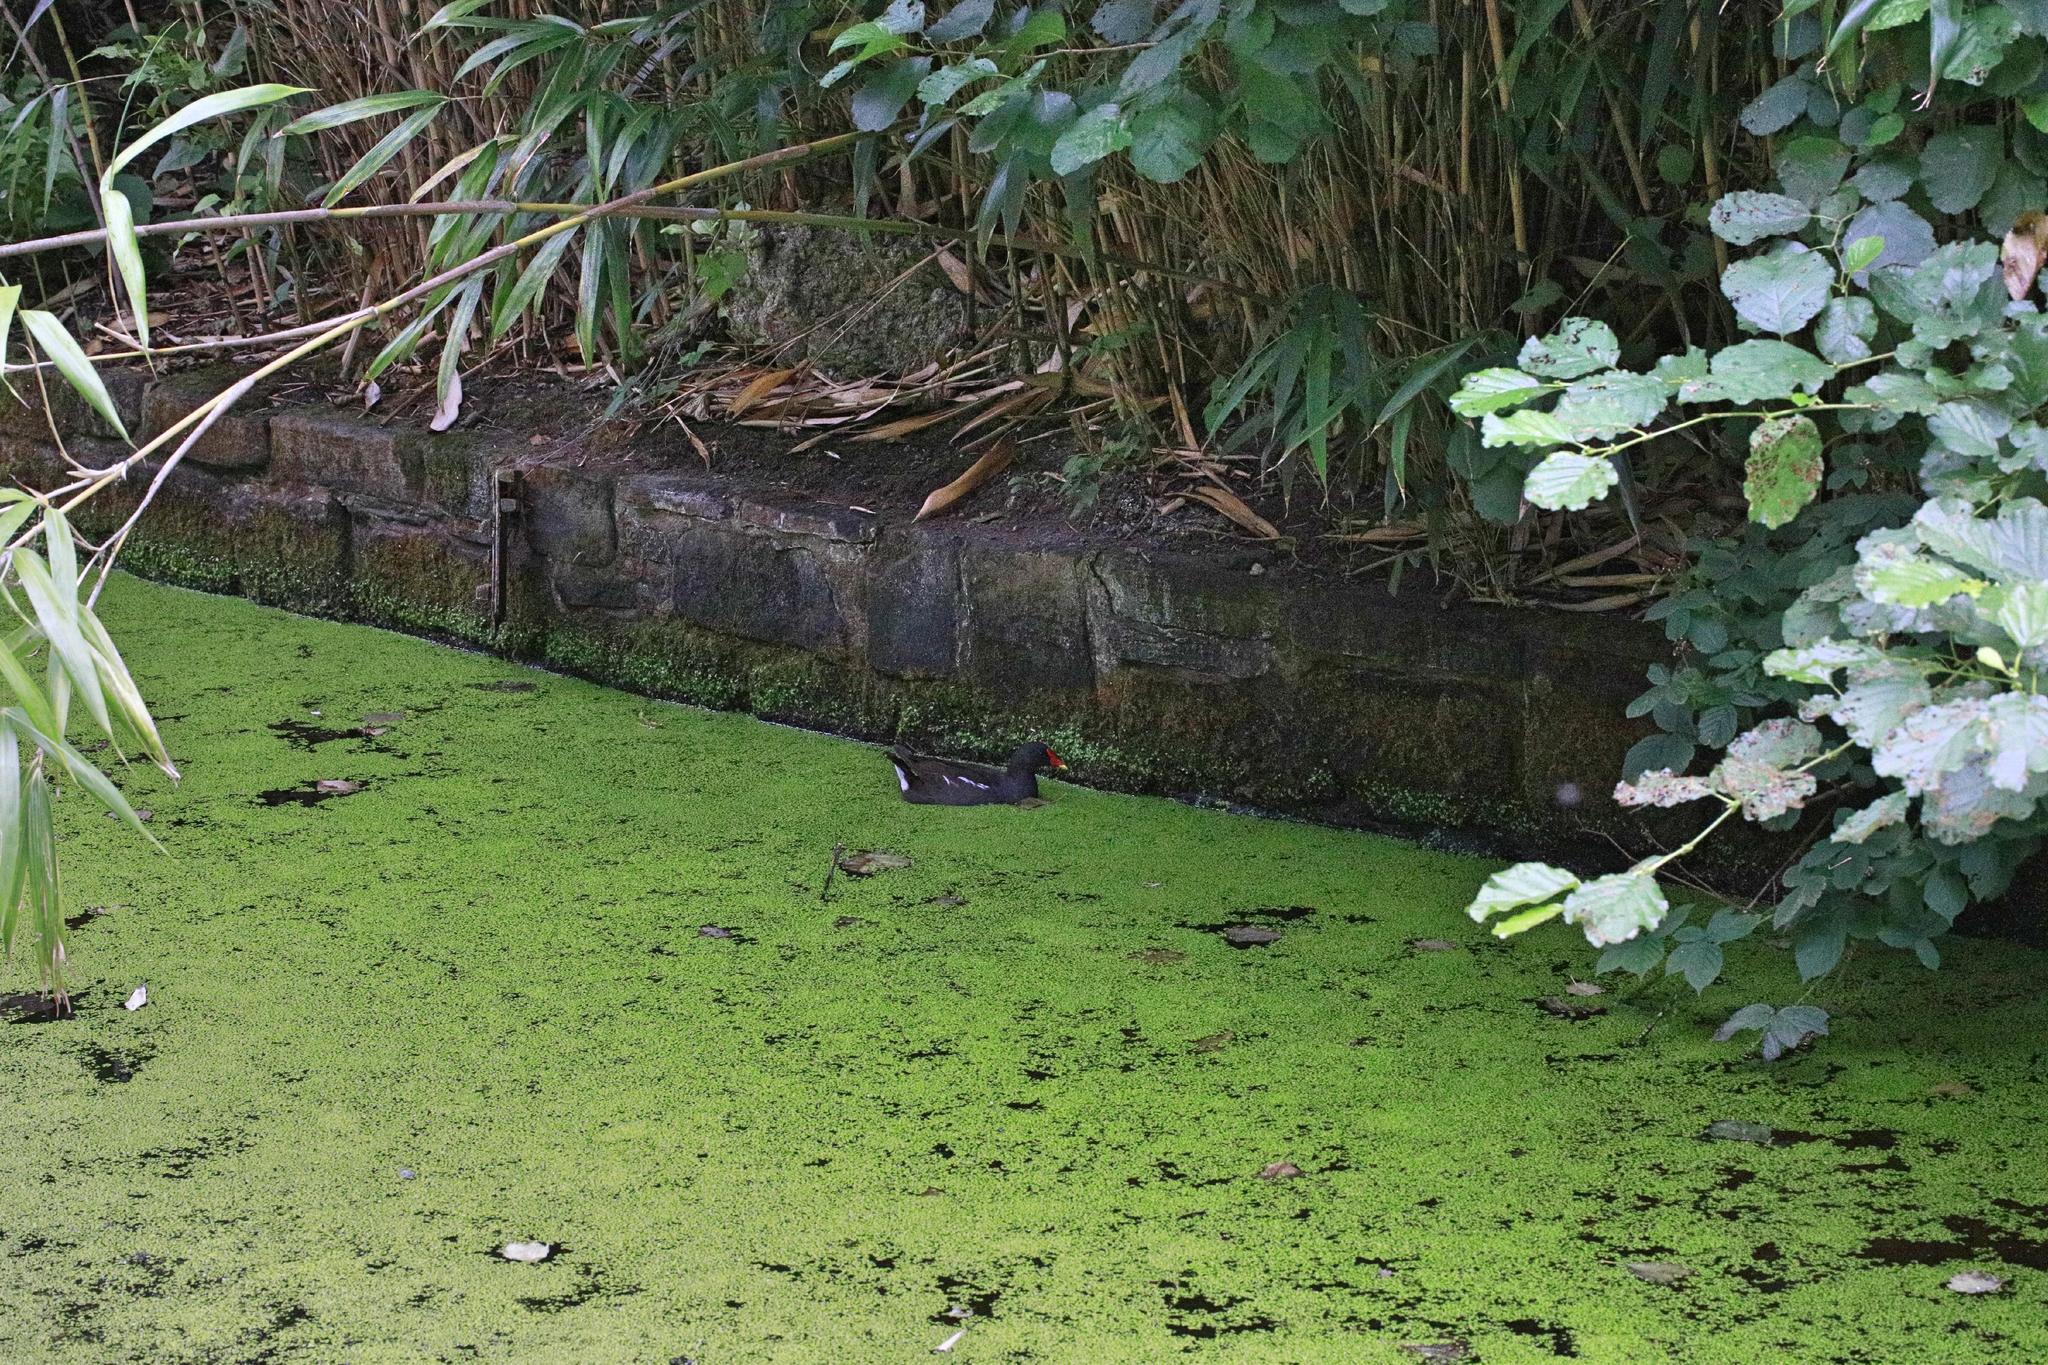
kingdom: Animalia
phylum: Chordata
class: Aves
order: Gruiformes
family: Rallidae
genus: Gallinula
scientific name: Gallinula chloropus
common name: Common moorhen
